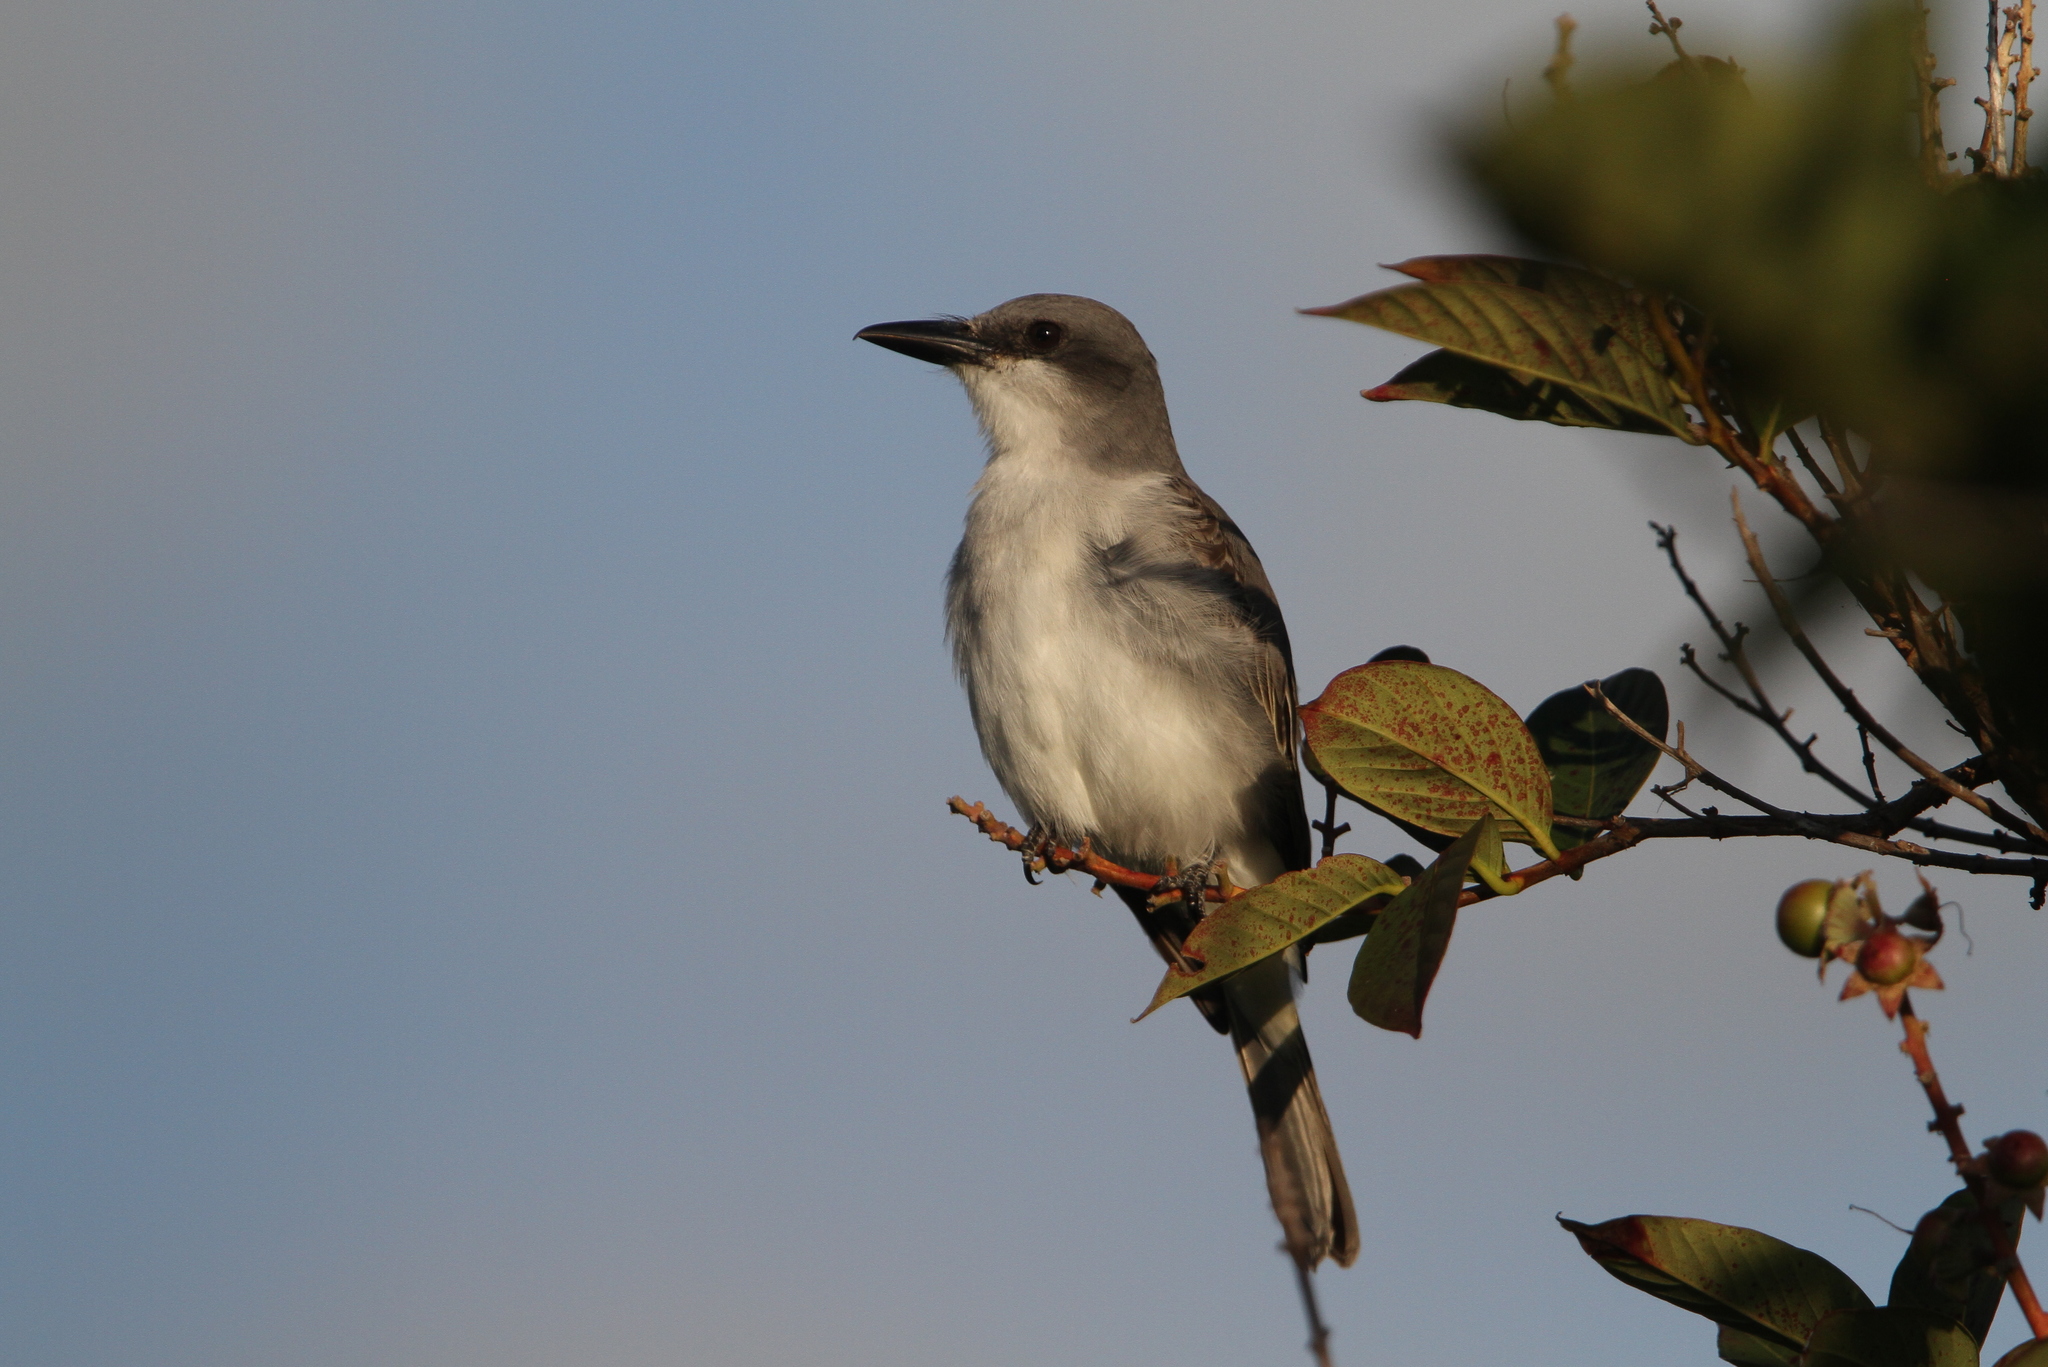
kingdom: Animalia
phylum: Chordata
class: Aves
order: Passeriformes
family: Tyrannidae
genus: Tyrannus
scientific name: Tyrannus dominicensis
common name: Gray kingbird
